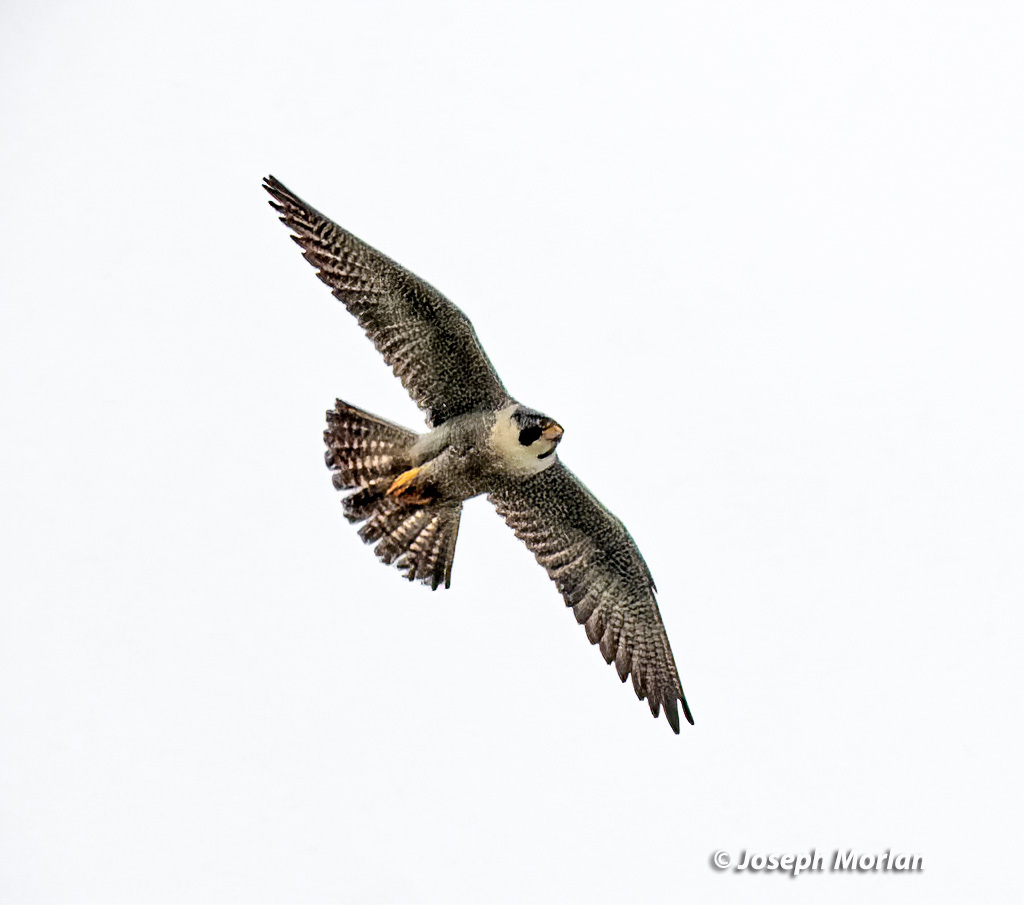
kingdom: Animalia
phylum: Chordata
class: Aves
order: Falconiformes
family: Falconidae
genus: Falco
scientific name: Falco peregrinus
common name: Peregrine falcon
